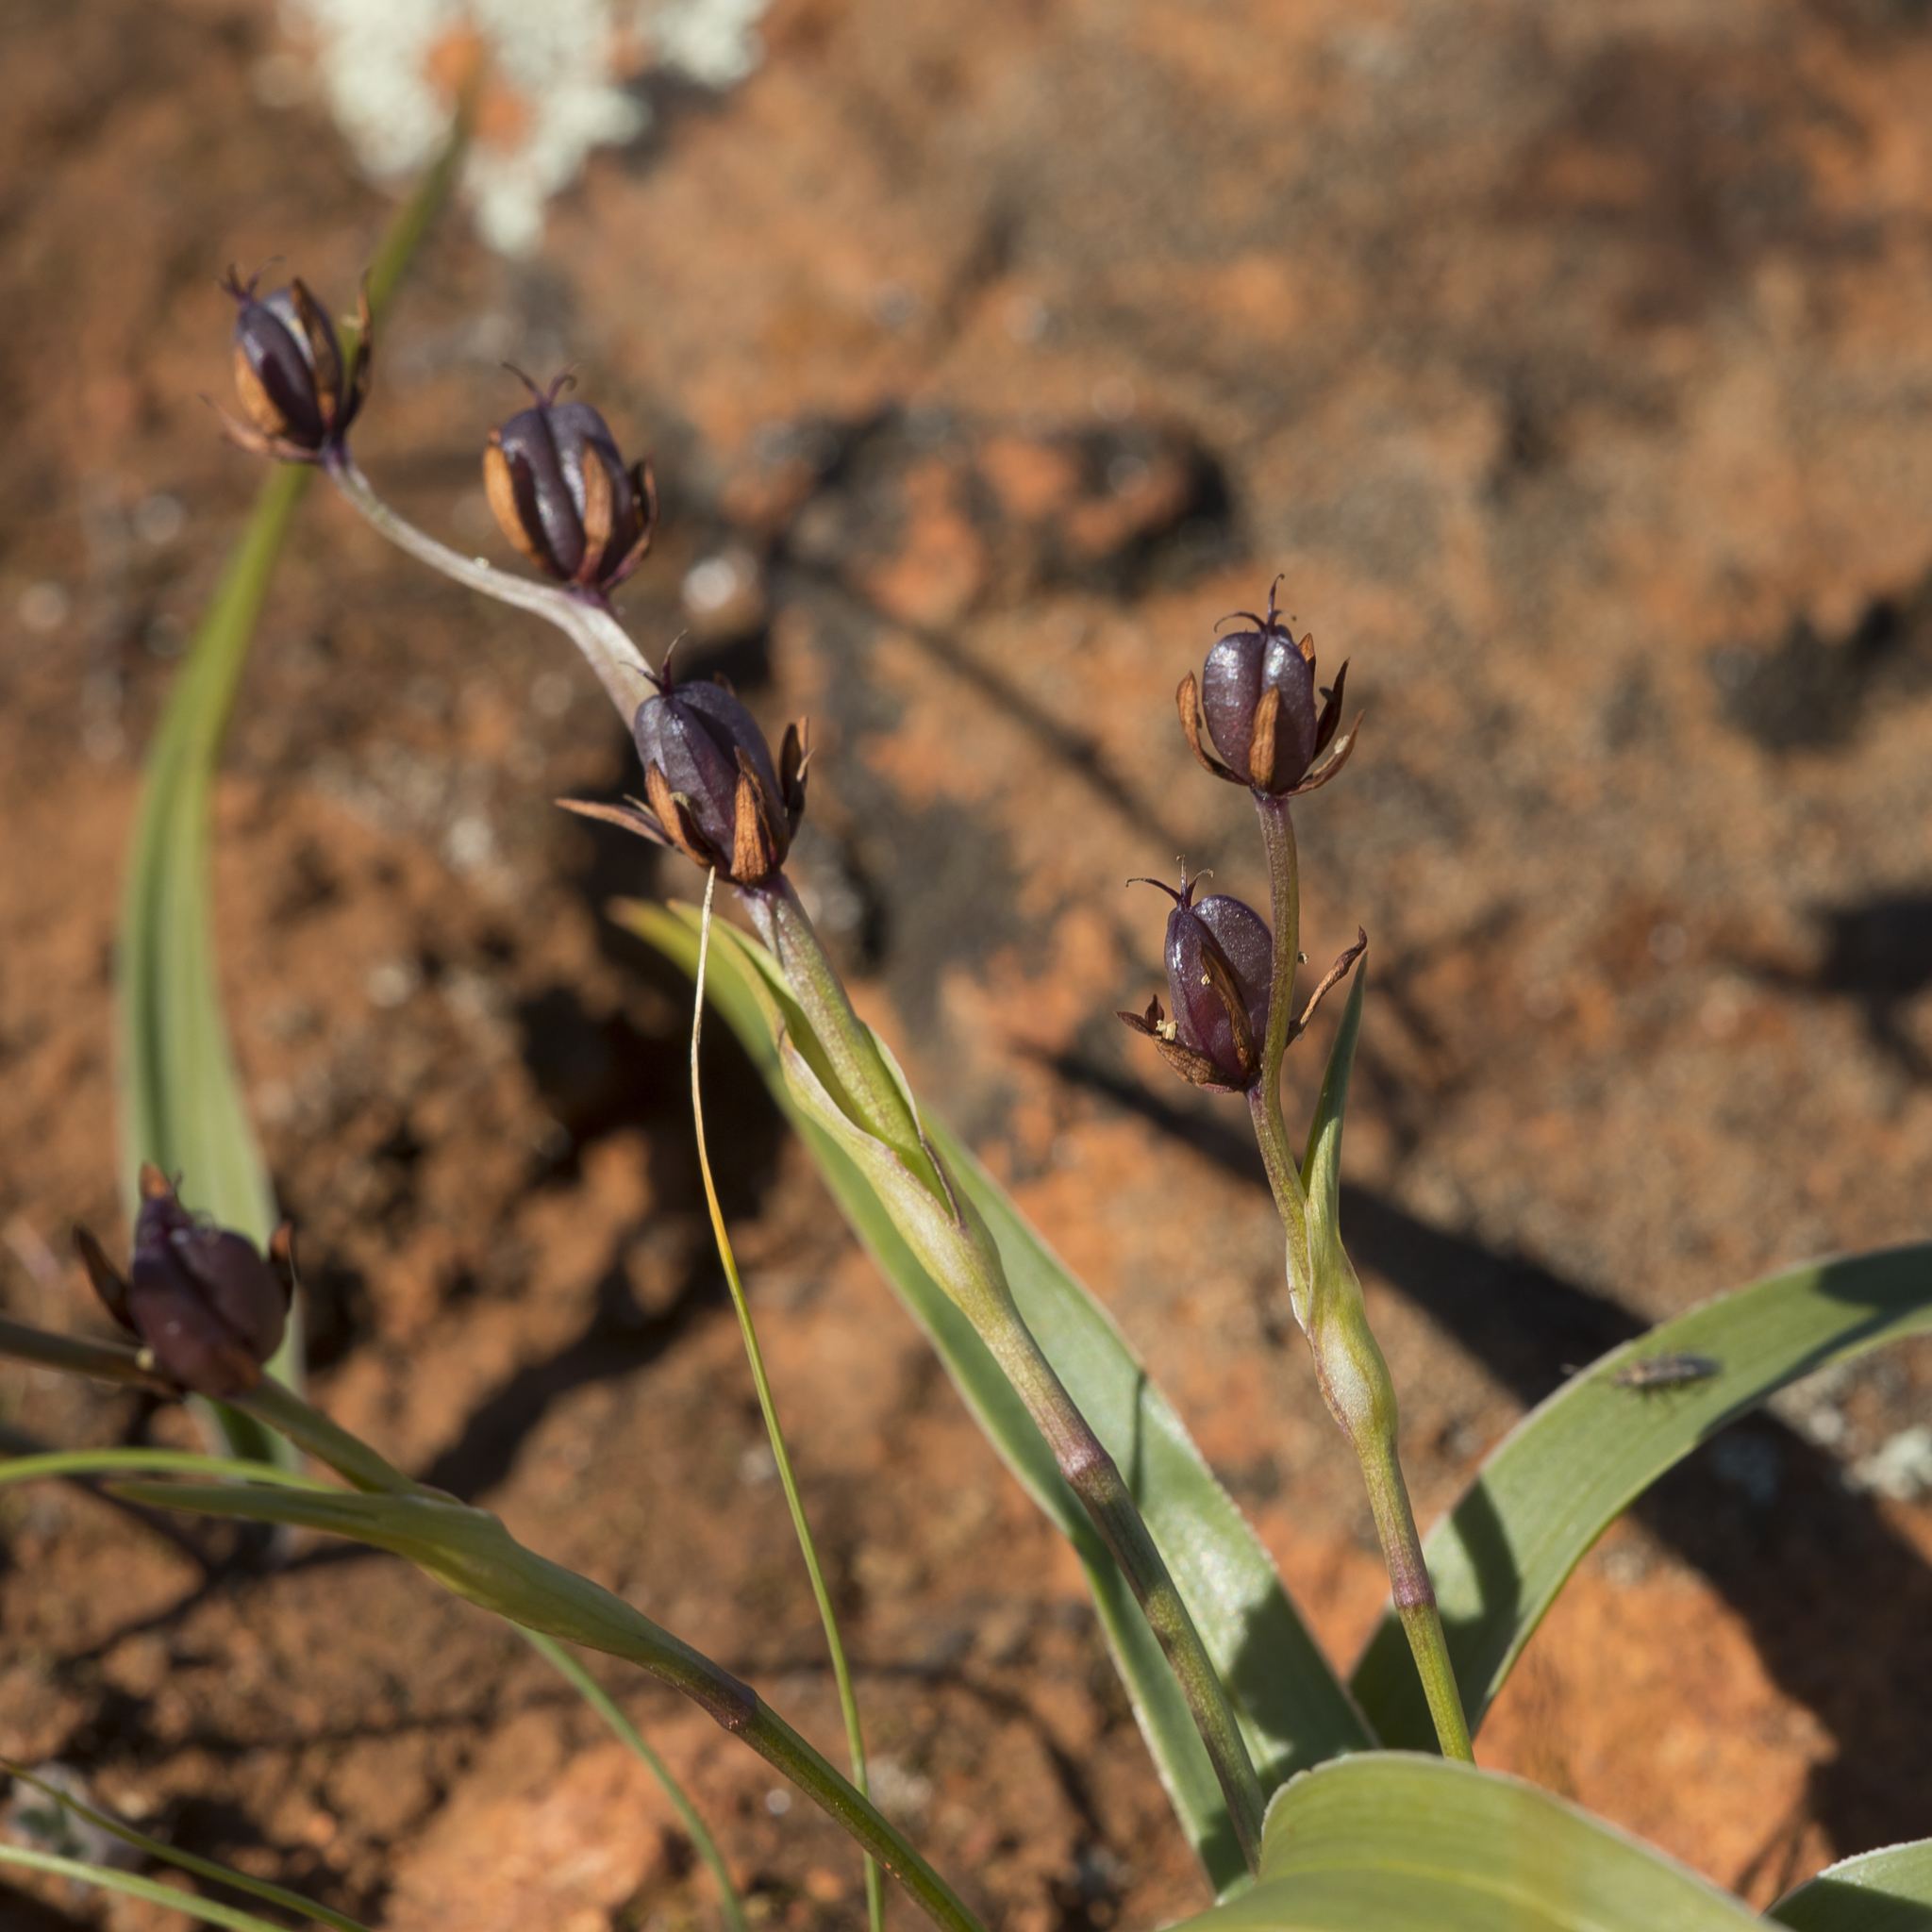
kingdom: Plantae
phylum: Tracheophyta
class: Liliopsida
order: Liliales
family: Colchicaceae
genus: Wurmbea
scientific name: Wurmbea australis
